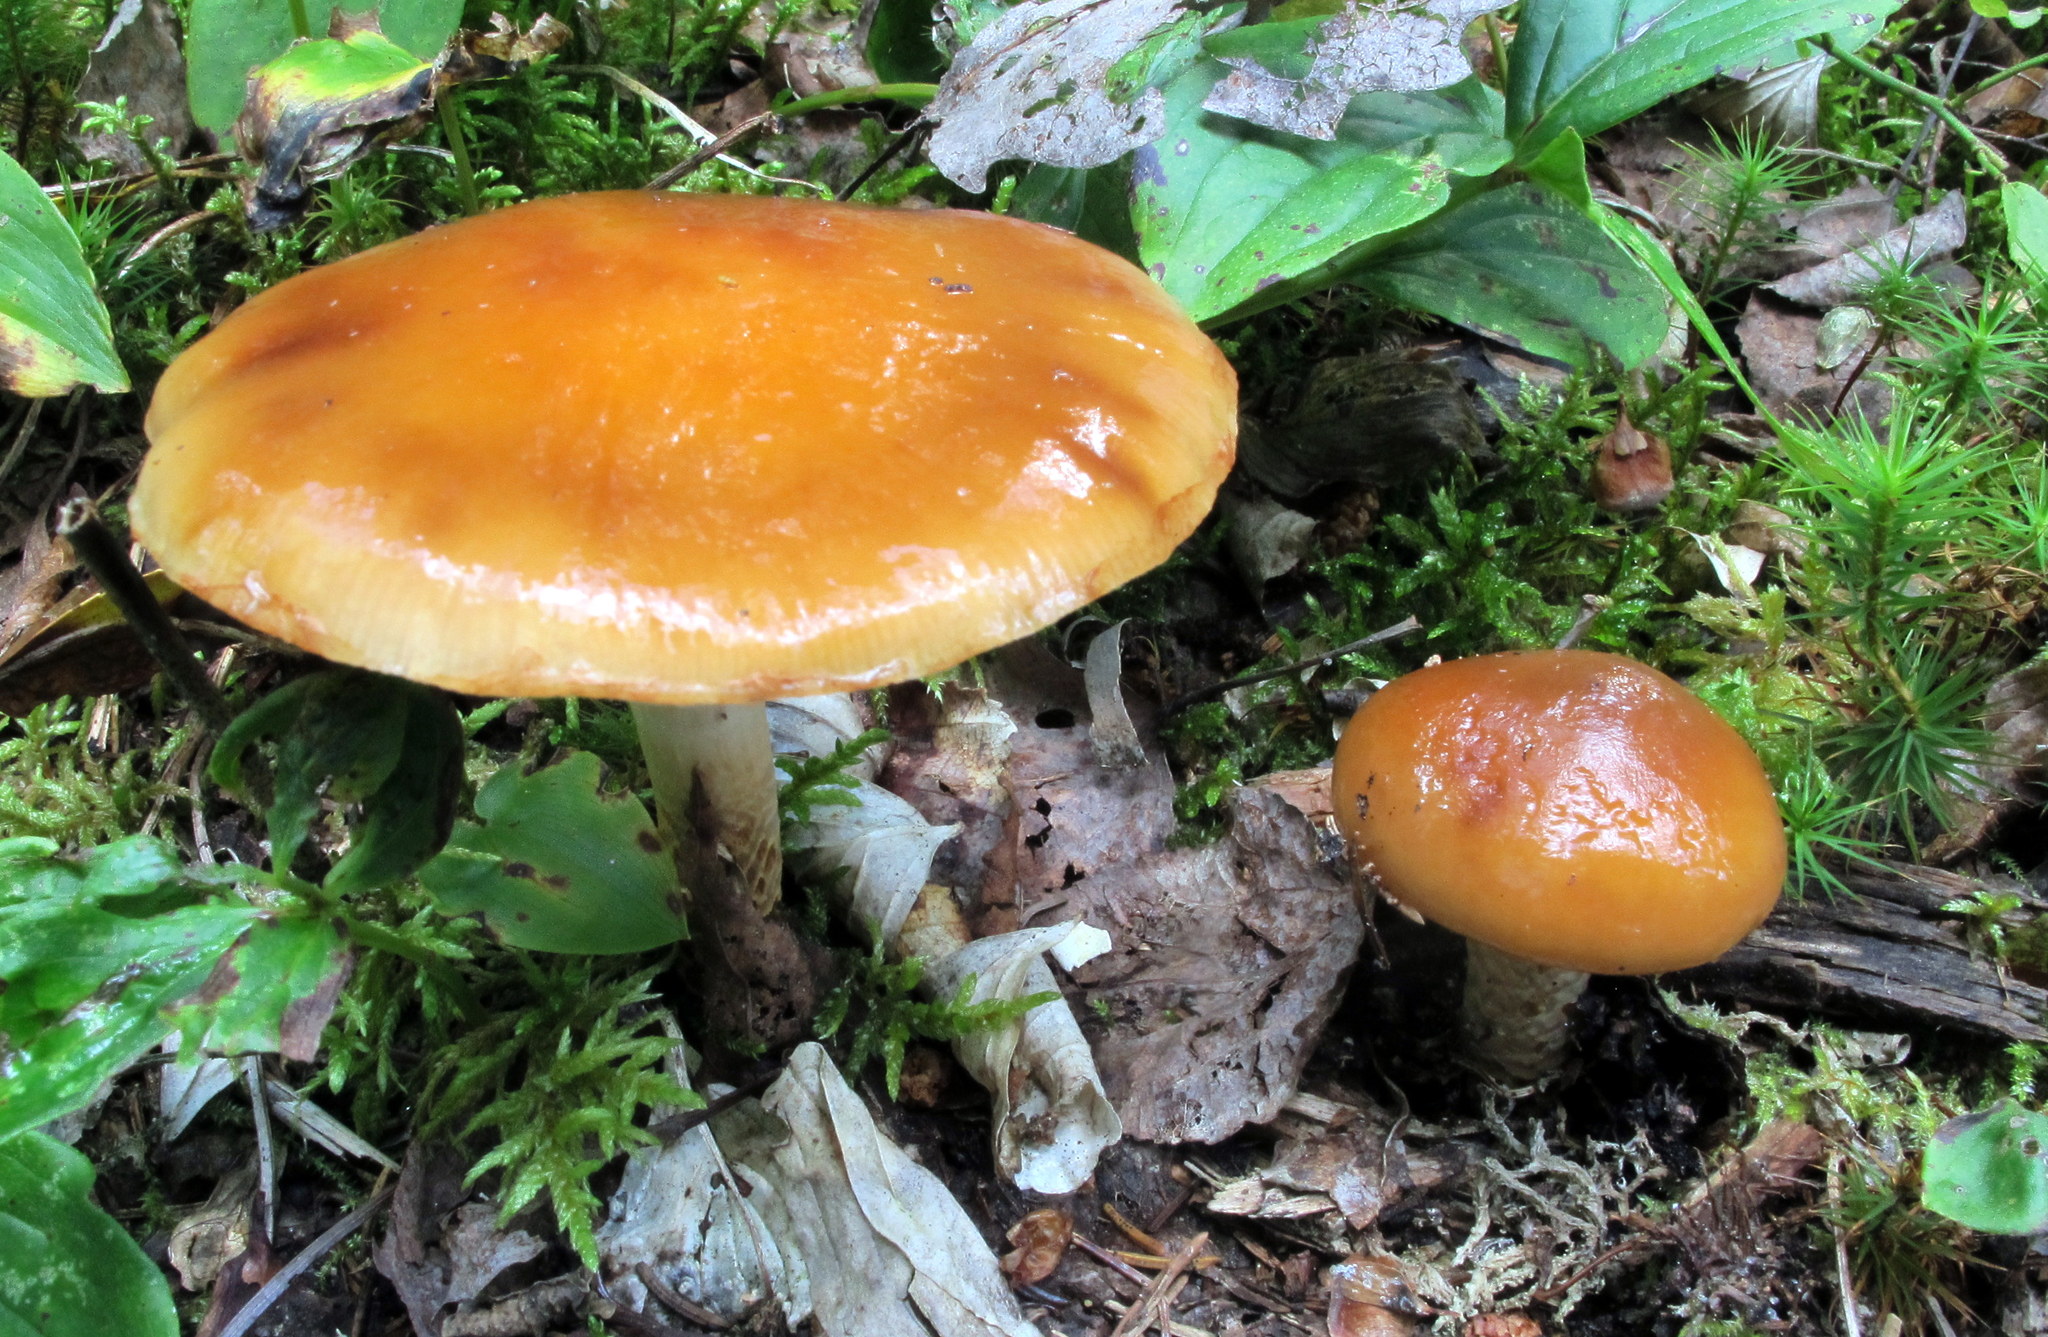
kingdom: Fungi
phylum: Basidiomycota
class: Agaricomycetes
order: Agaricales
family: Cortinariaceae
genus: Cortinarius
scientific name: Cortinarius trivialis
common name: Girdled webcap
